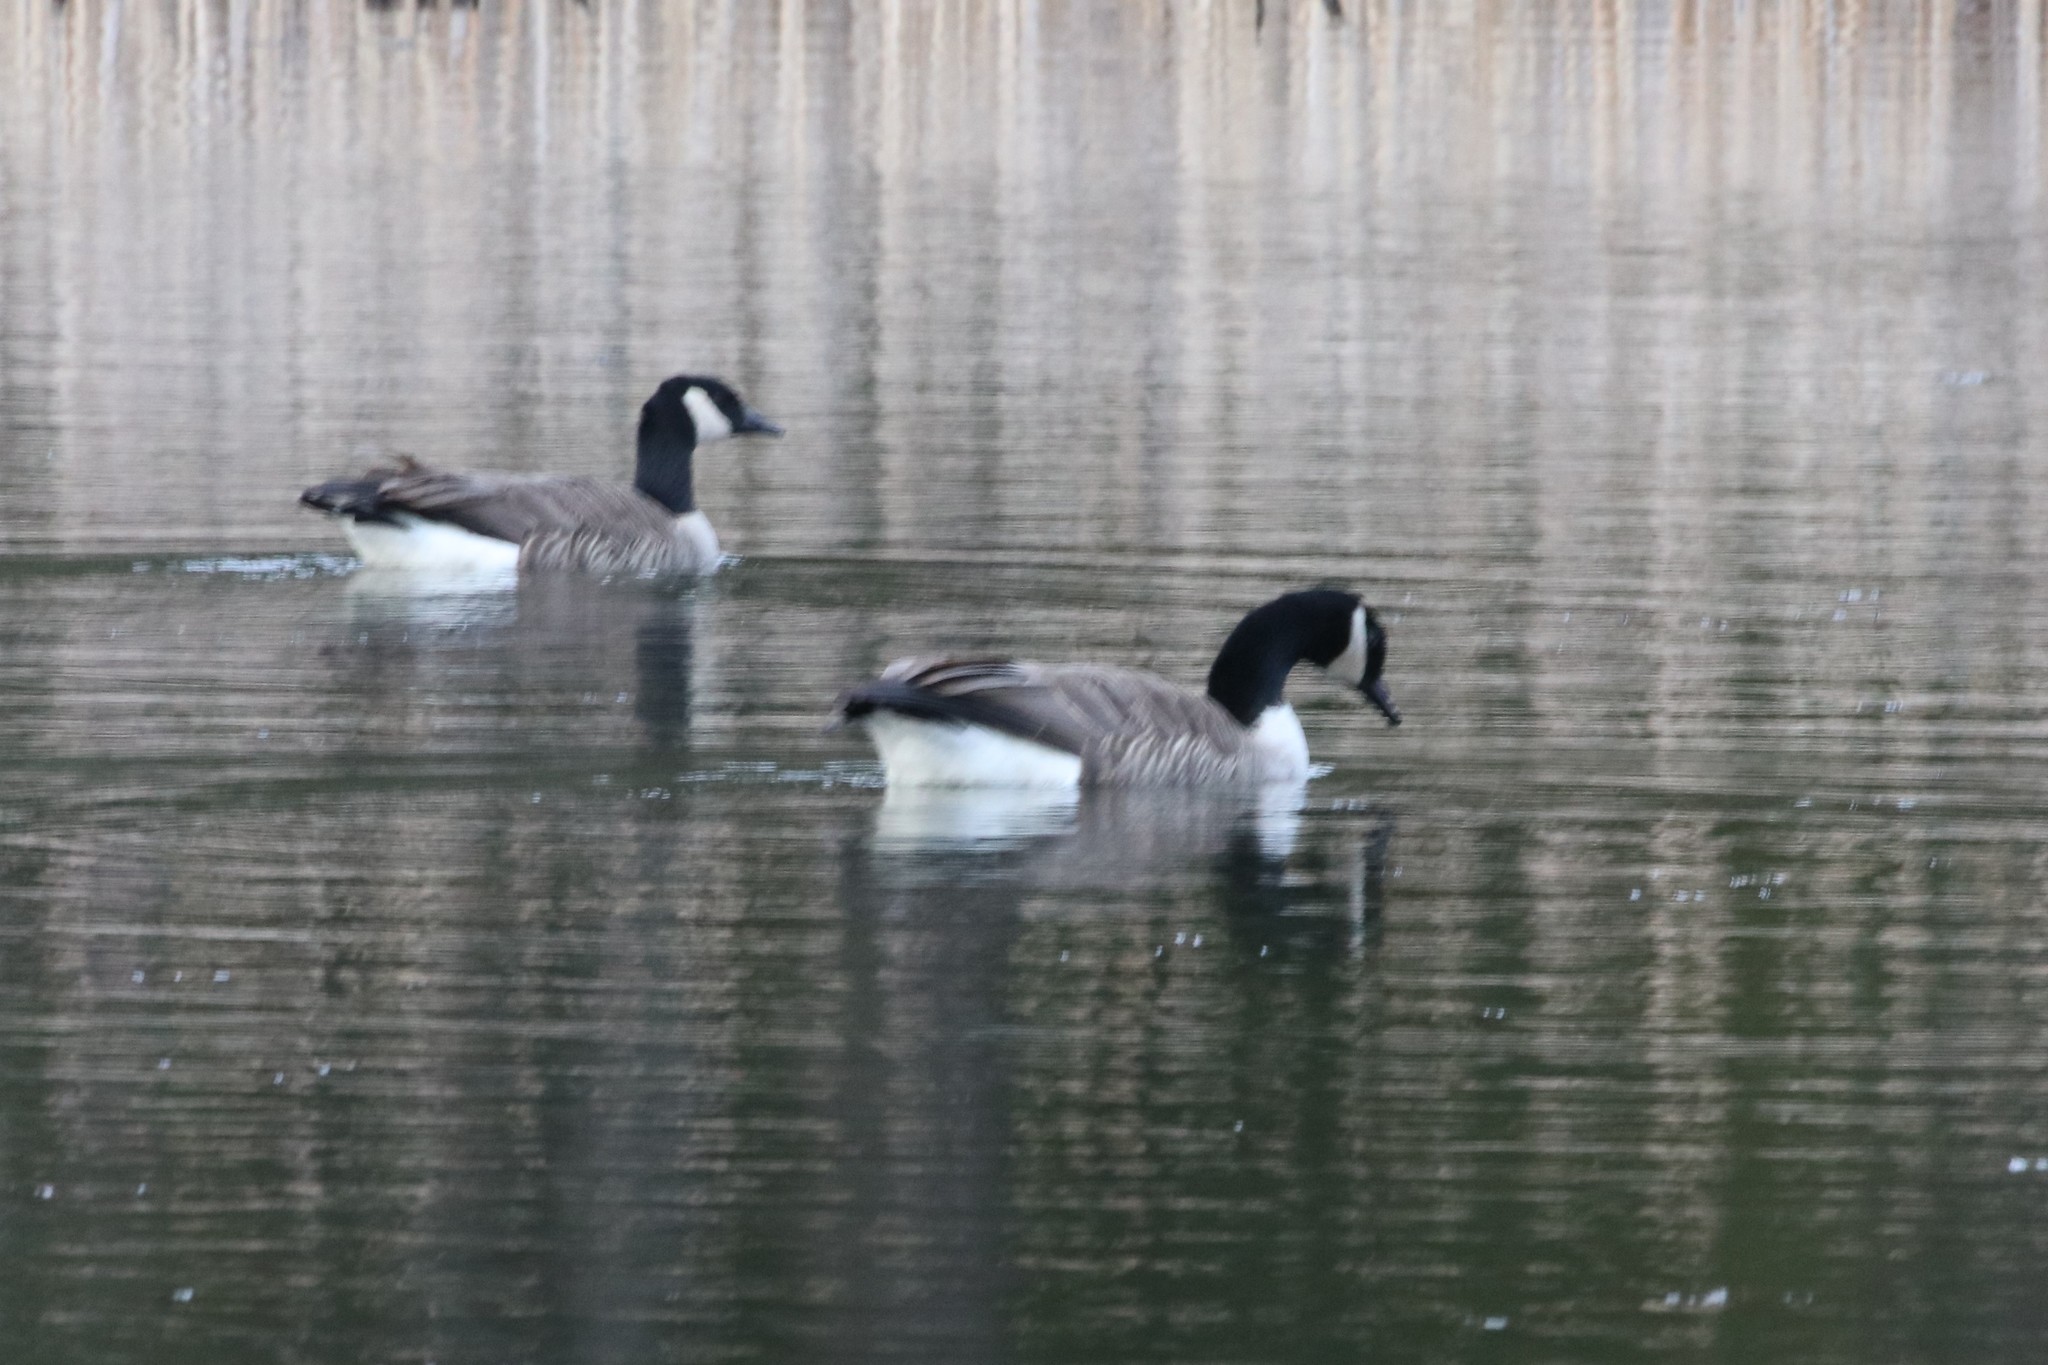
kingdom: Animalia
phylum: Chordata
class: Aves
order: Anseriformes
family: Anatidae
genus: Branta
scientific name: Branta canadensis
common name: Canada goose
